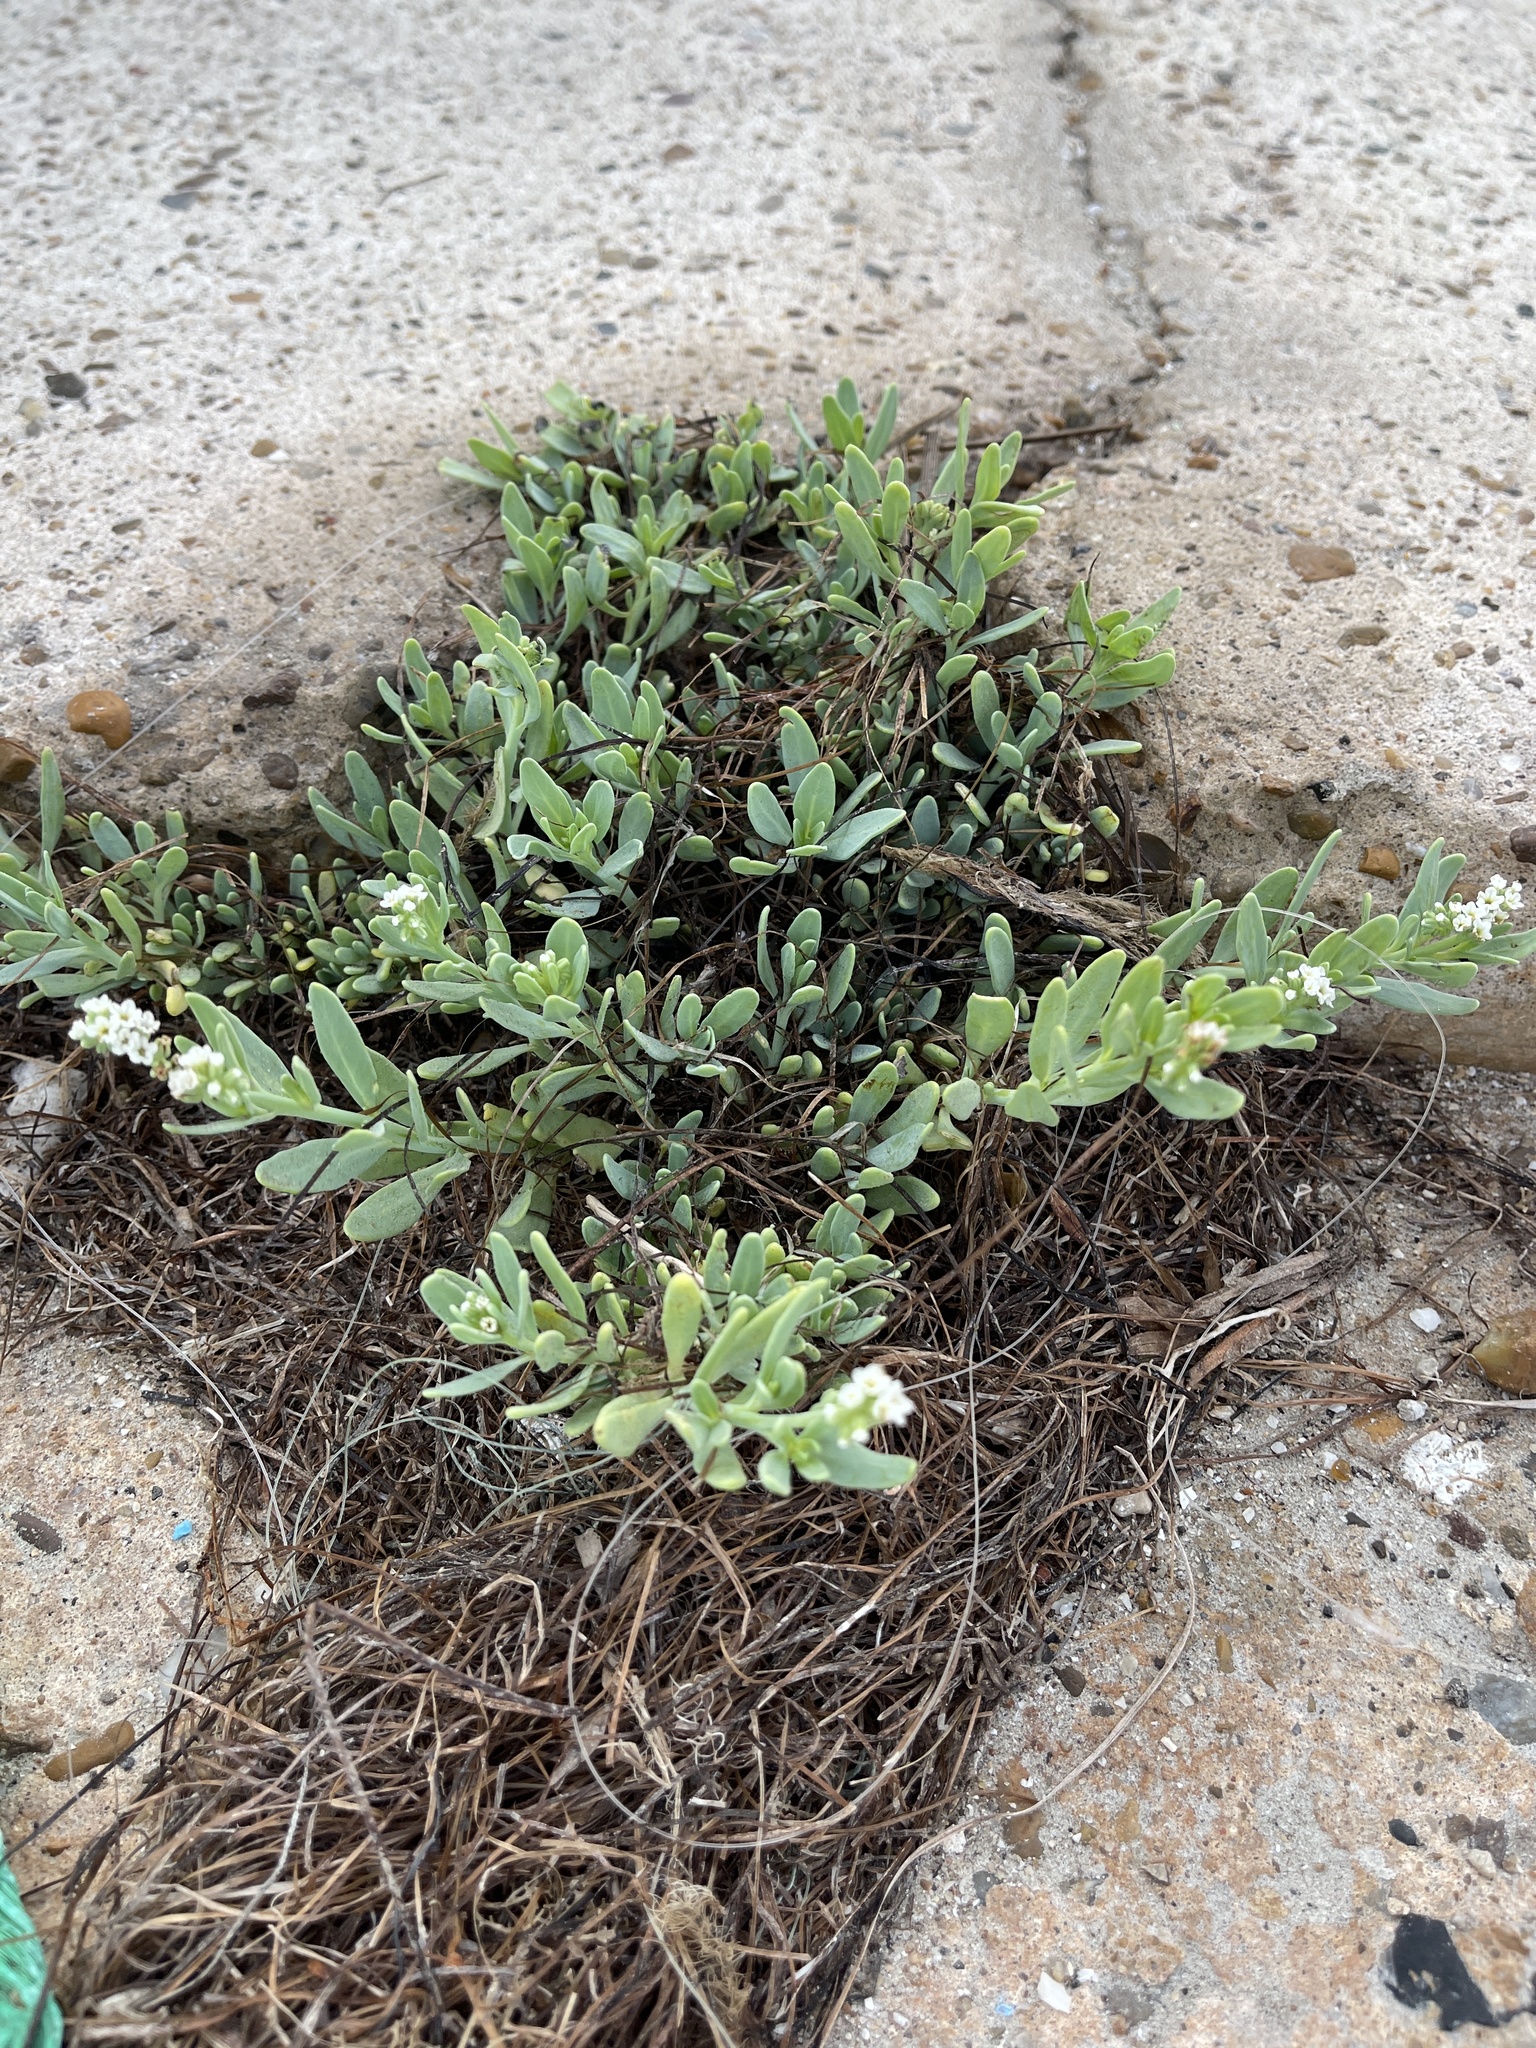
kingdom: Plantae
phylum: Tracheophyta
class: Magnoliopsida
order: Boraginales
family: Heliotropiaceae
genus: Heliotropium
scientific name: Heliotropium curassavicum
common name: Seaside heliotrope
